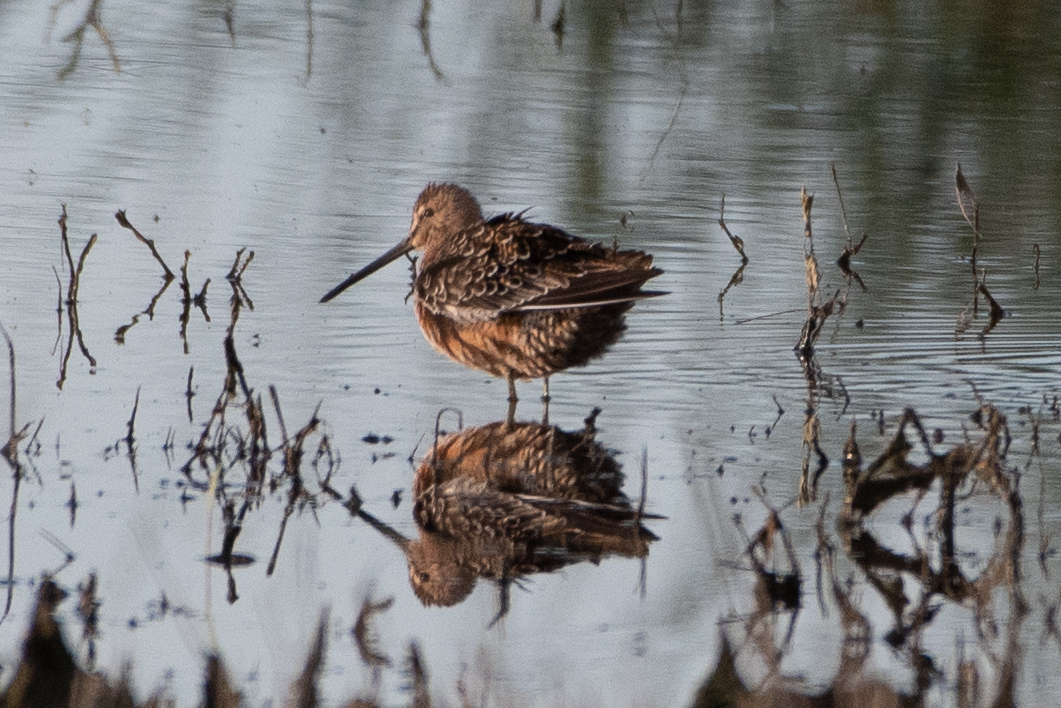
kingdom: Animalia
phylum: Chordata
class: Aves
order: Charadriiformes
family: Scolopacidae
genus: Limnodromus
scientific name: Limnodromus scolopaceus
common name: Long-billed dowitcher
